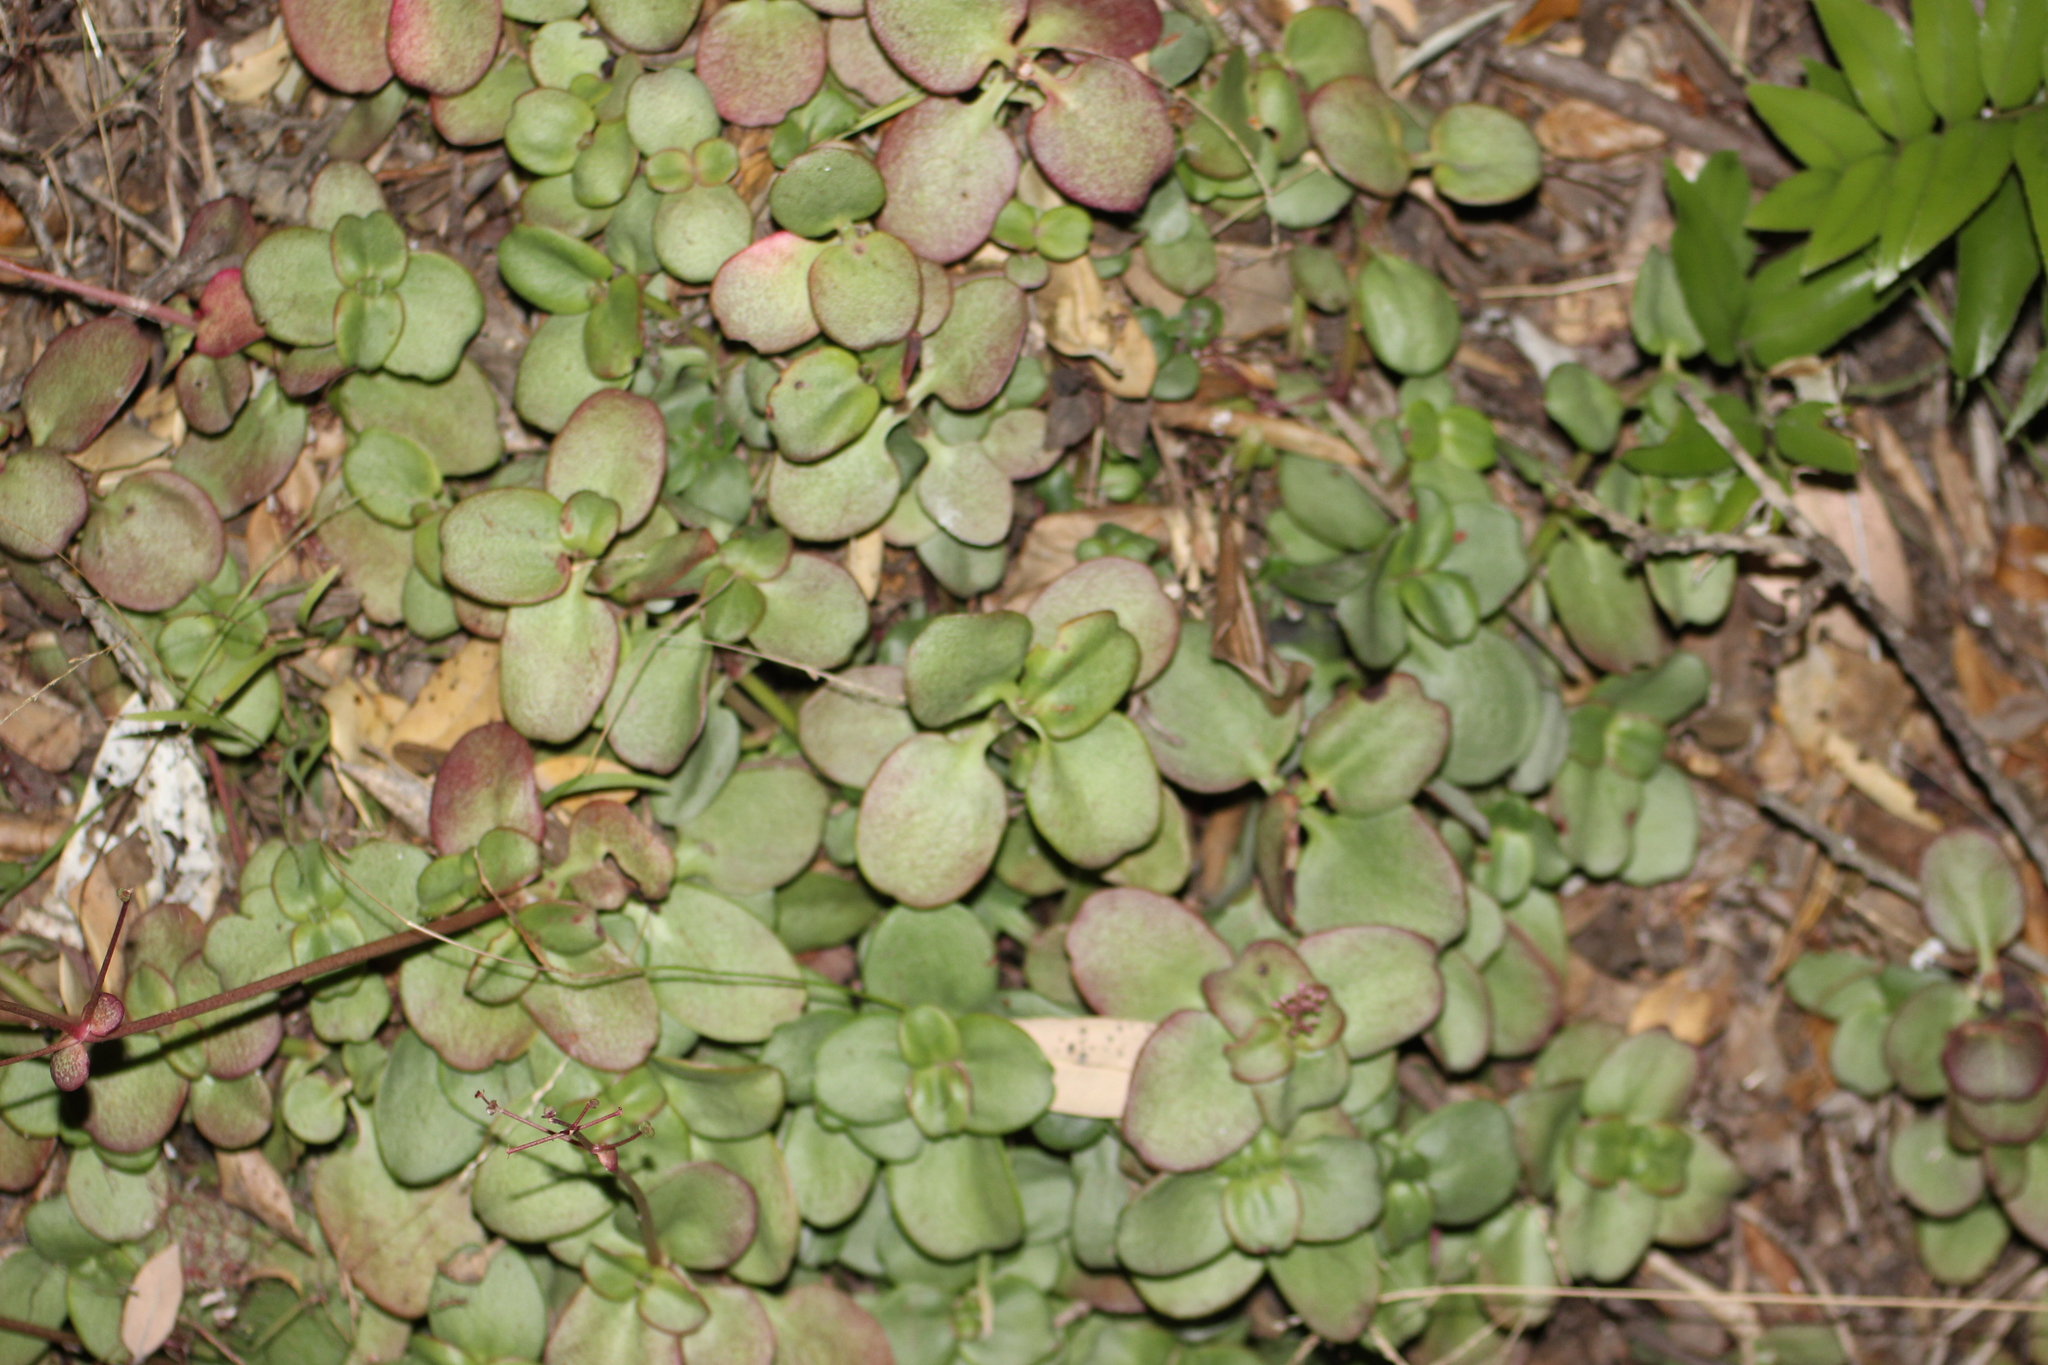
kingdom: Plantae
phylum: Tracheophyta
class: Magnoliopsida
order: Saxifragales
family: Crassulaceae
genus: Crassula
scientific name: Crassula multicava
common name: Cape province pygmyweed
